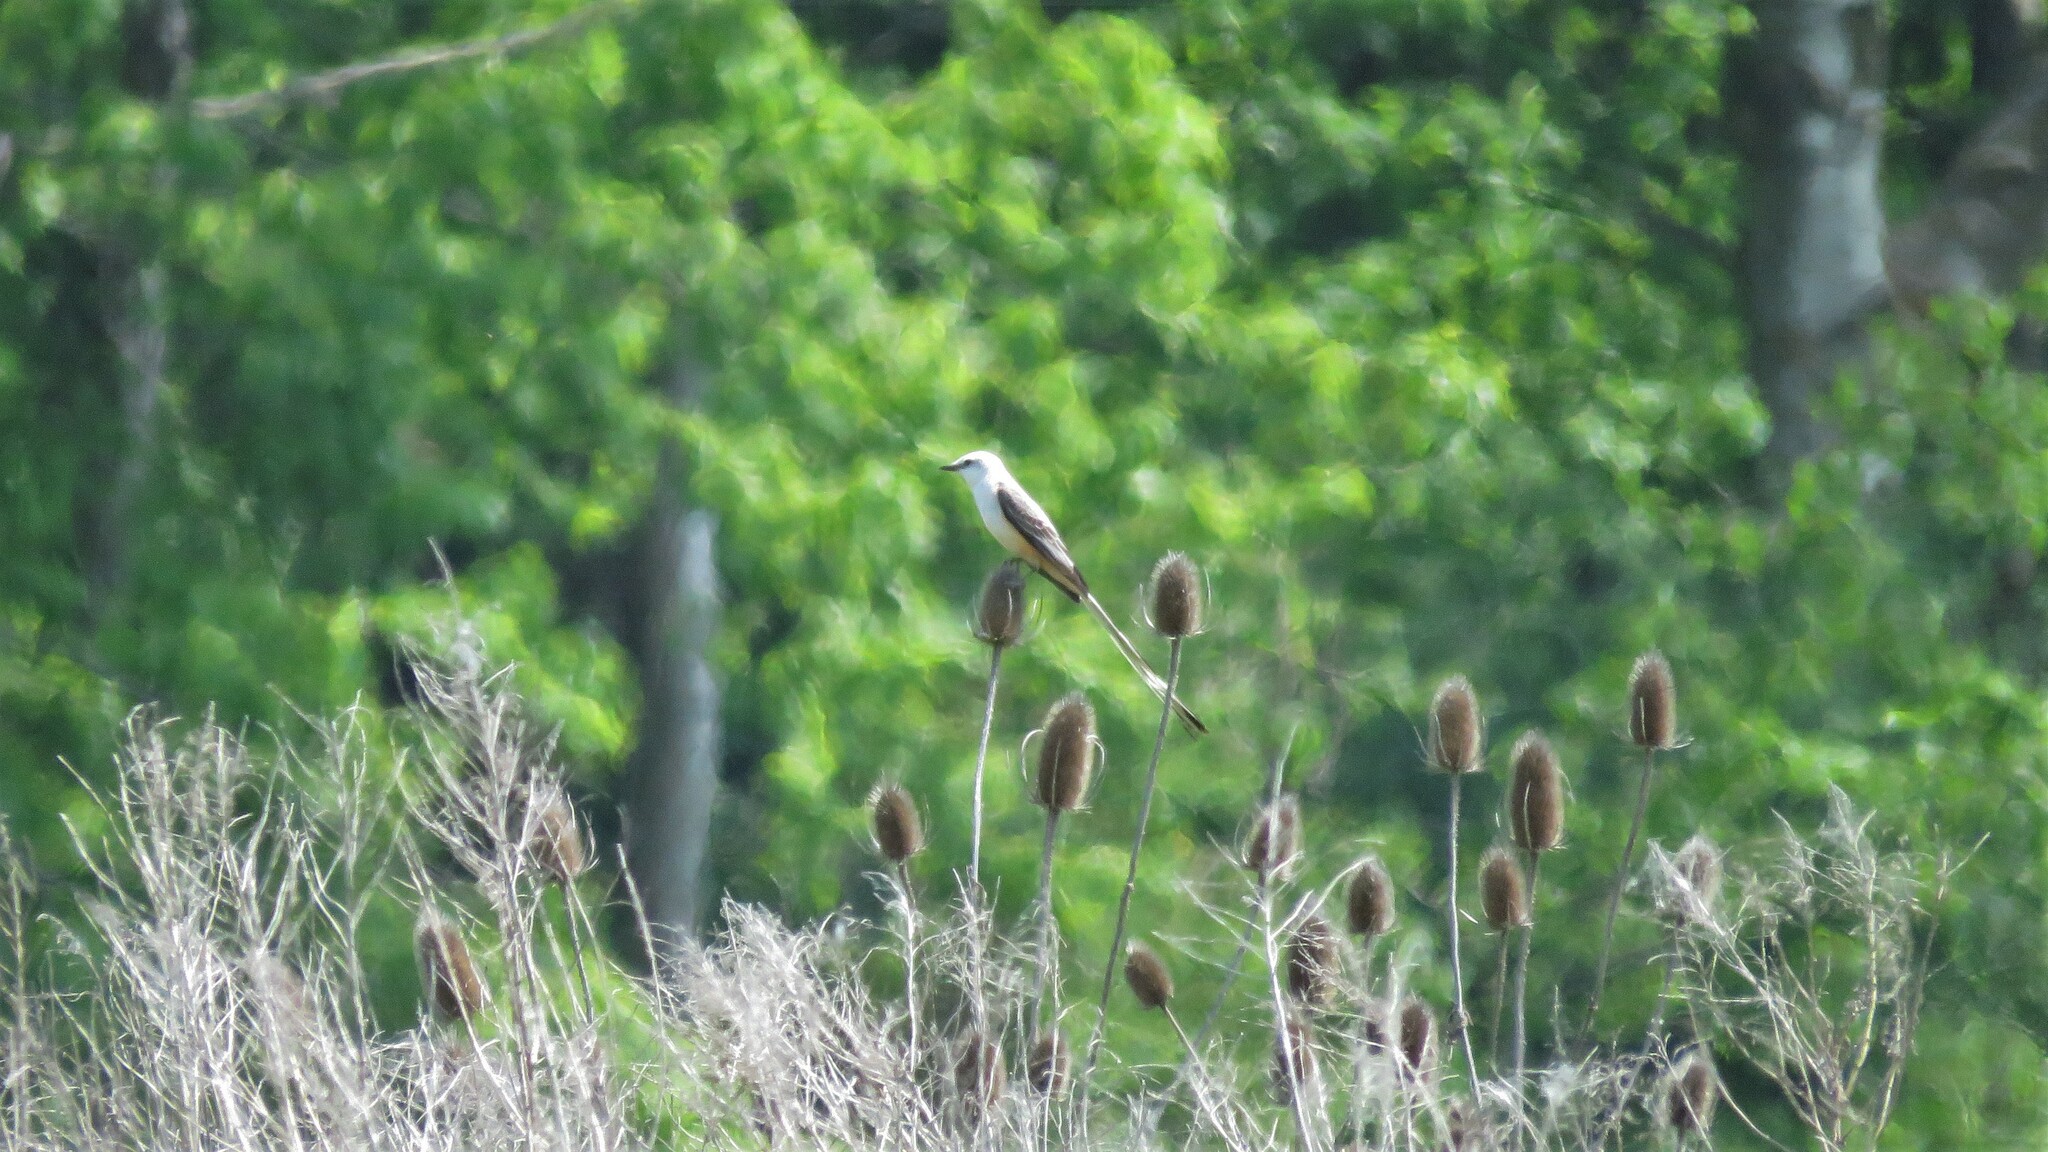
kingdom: Animalia
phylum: Chordata
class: Aves
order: Passeriformes
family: Tyrannidae
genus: Tyrannus
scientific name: Tyrannus forficatus
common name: Scissor-tailed flycatcher
